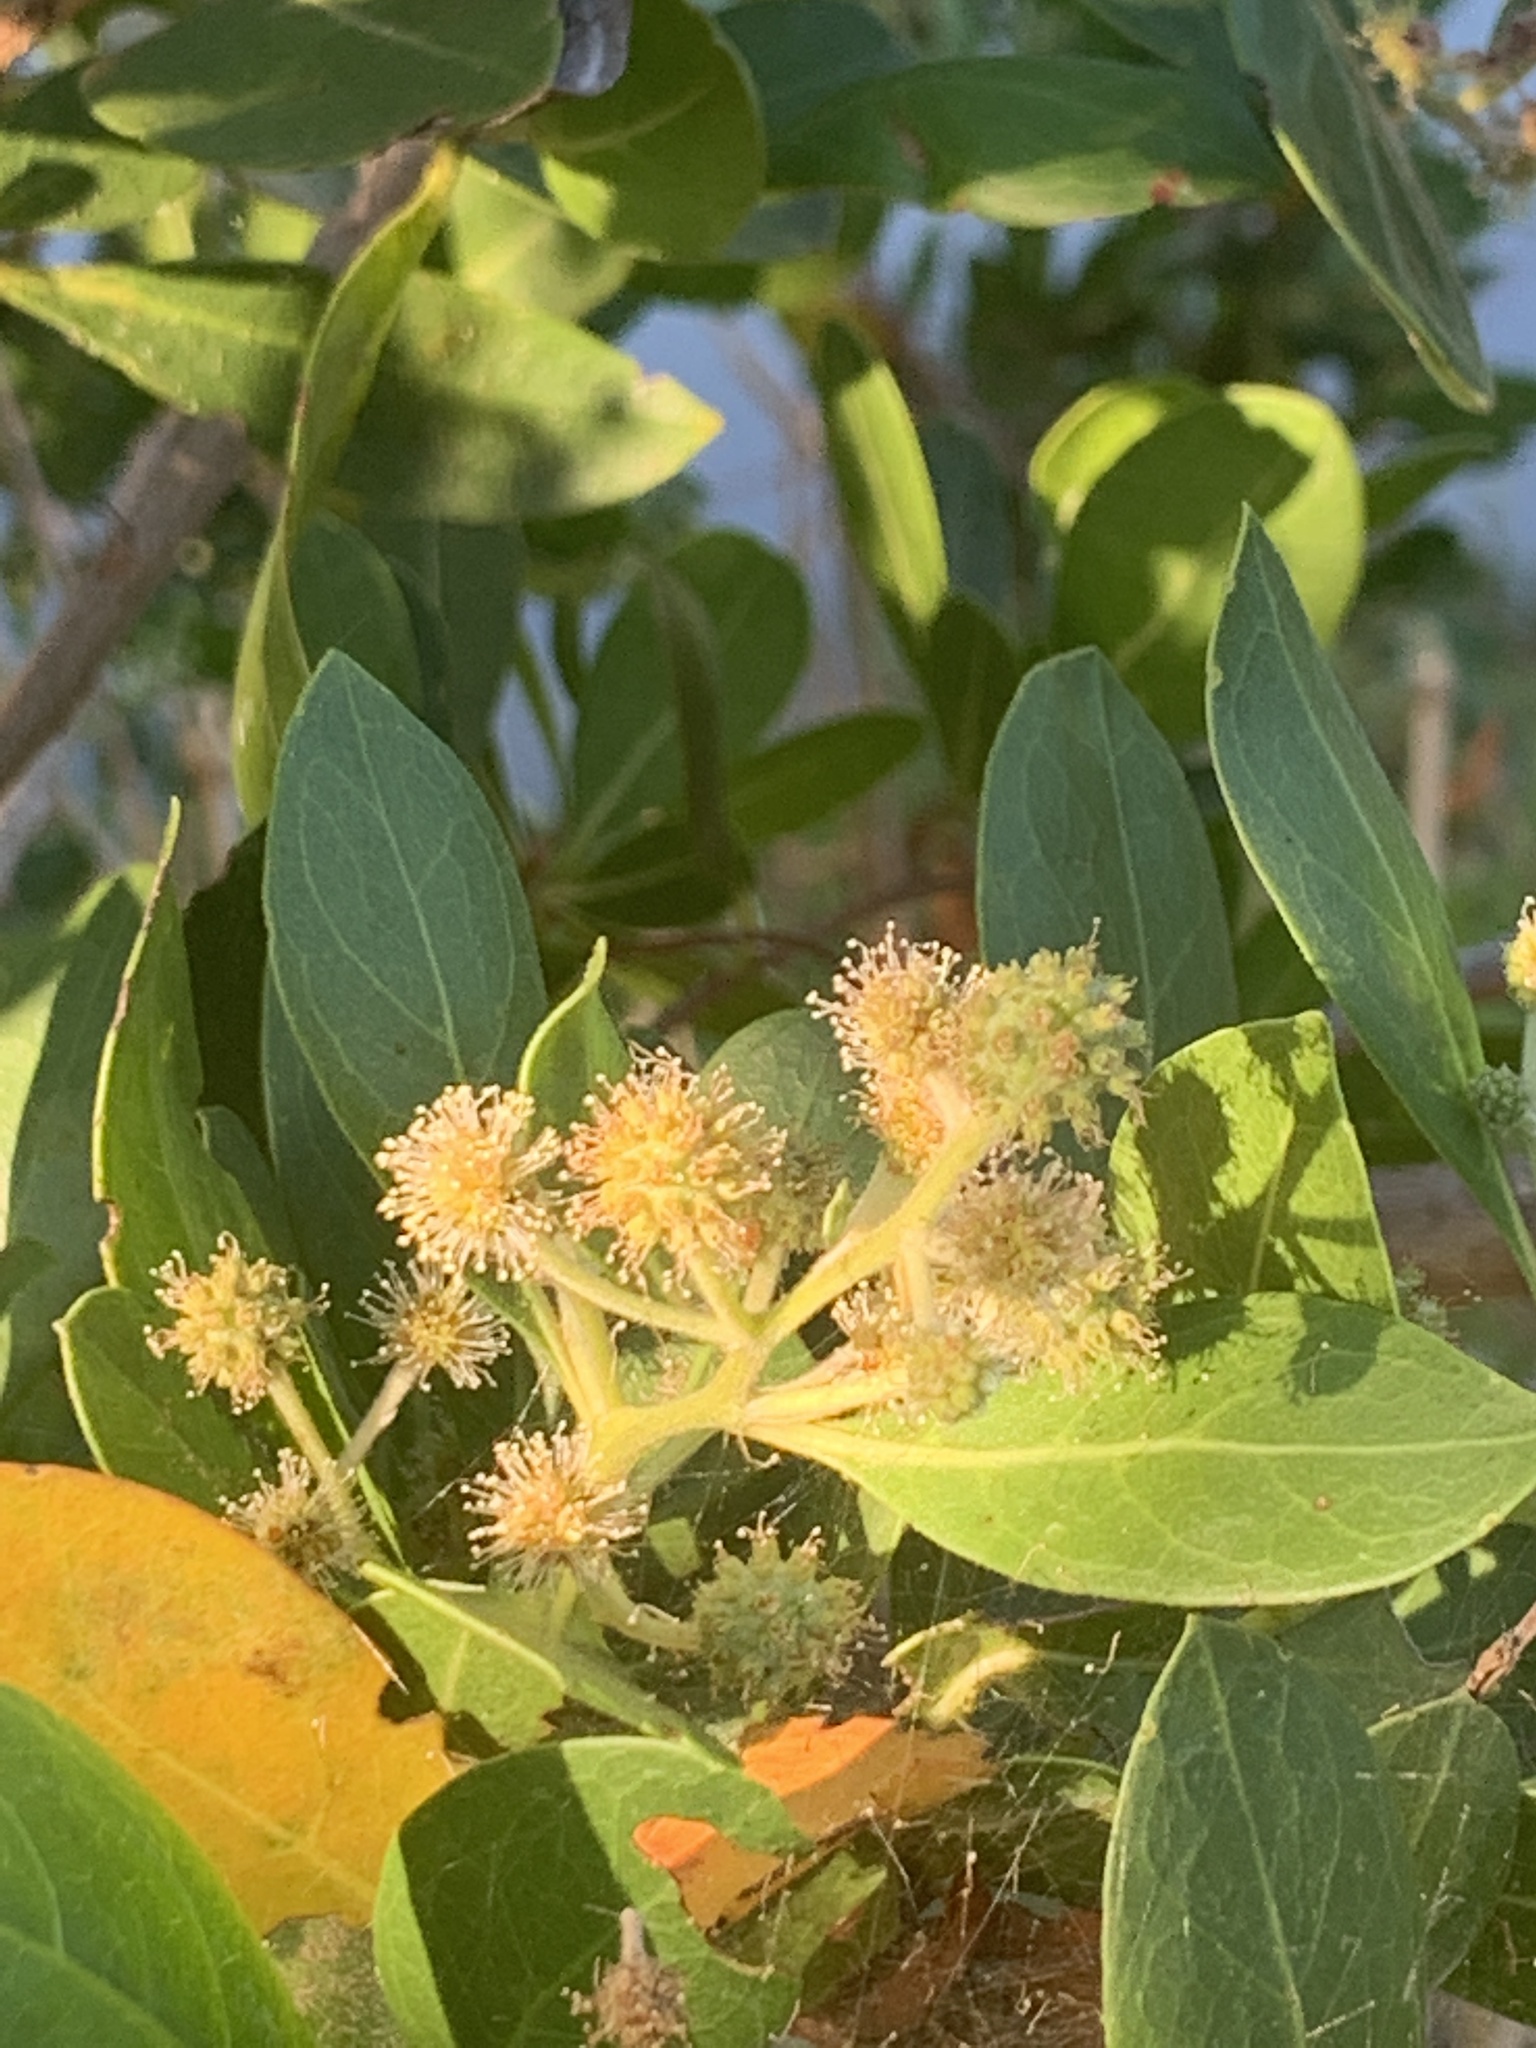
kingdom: Plantae
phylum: Tracheophyta
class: Magnoliopsida
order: Myrtales
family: Combretaceae
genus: Conocarpus
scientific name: Conocarpus erectus
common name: Button mangrove
